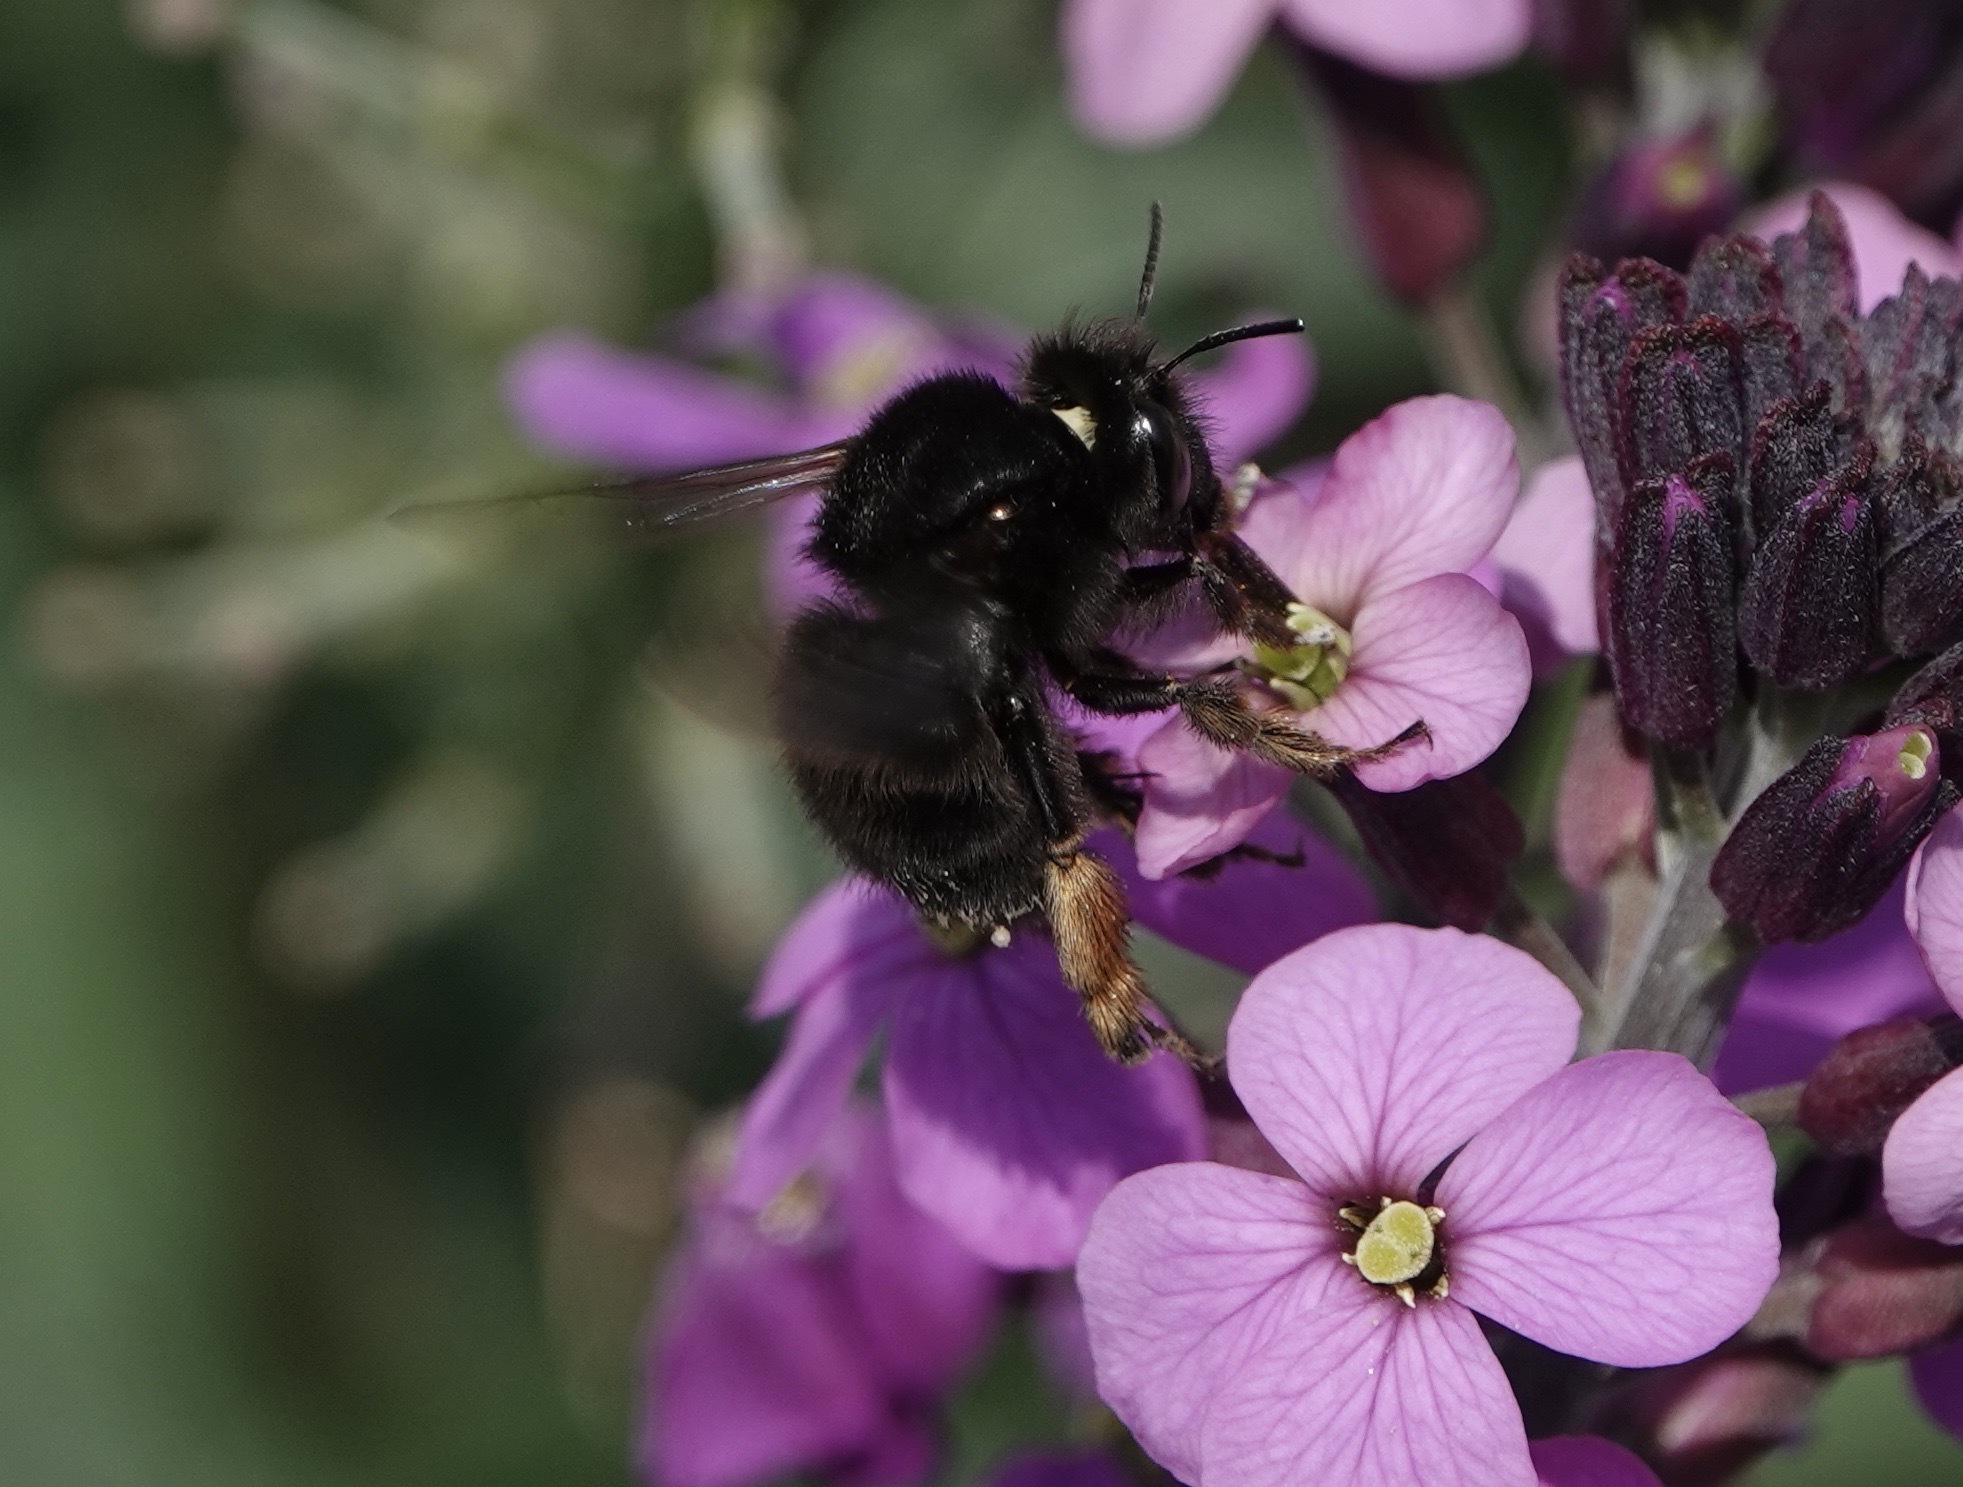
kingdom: Animalia
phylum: Arthropoda
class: Insecta
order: Hymenoptera
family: Apidae
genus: Anthophora
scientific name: Anthophora plumipes
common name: Hairy-footed flower bee
